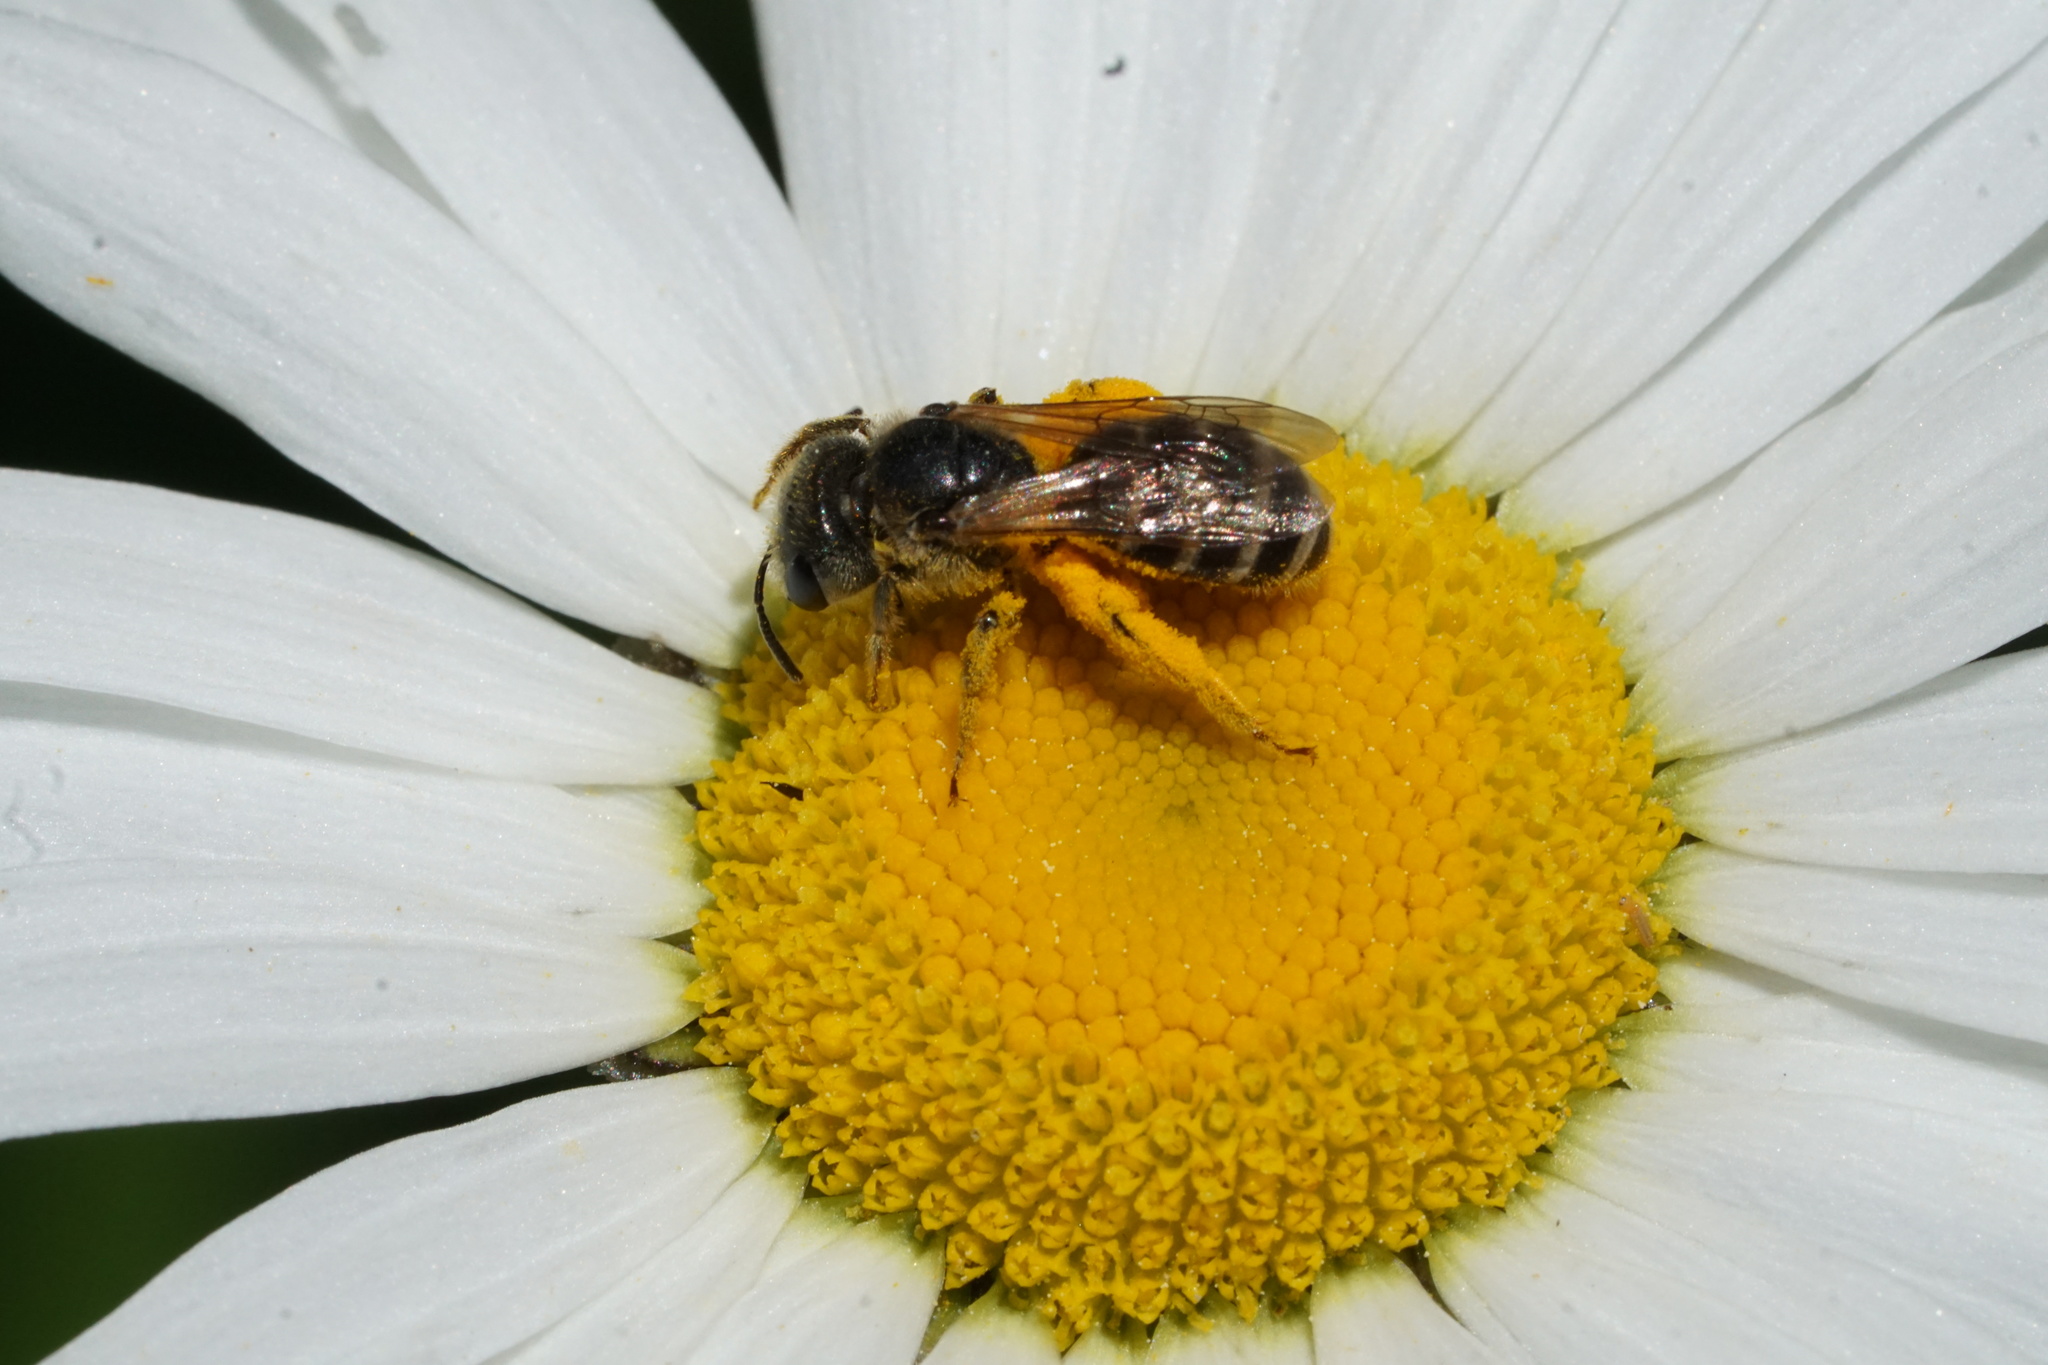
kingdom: Animalia
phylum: Arthropoda
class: Insecta
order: Hymenoptera
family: Halictidae
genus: Halictus
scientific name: Halictus ligatus
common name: Ligated furrow bee
